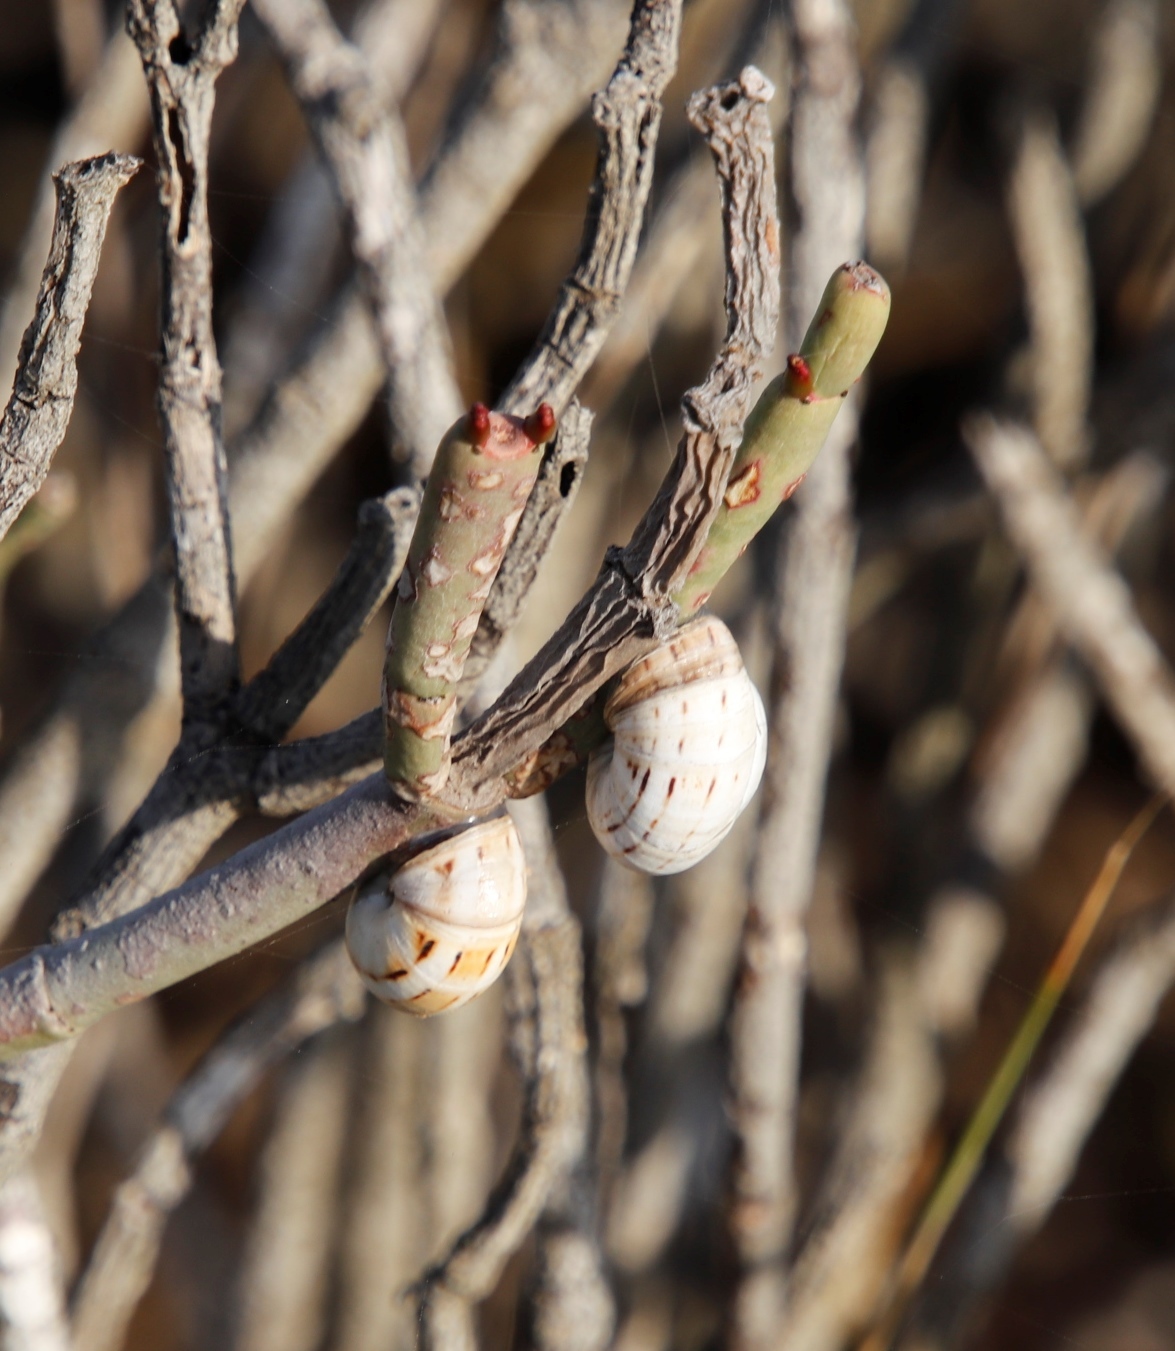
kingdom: Animalia
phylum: Mollusca
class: Gastropoda
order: Stylommatophora
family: Helicidae
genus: Theba
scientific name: Theba pisana
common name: White snail
